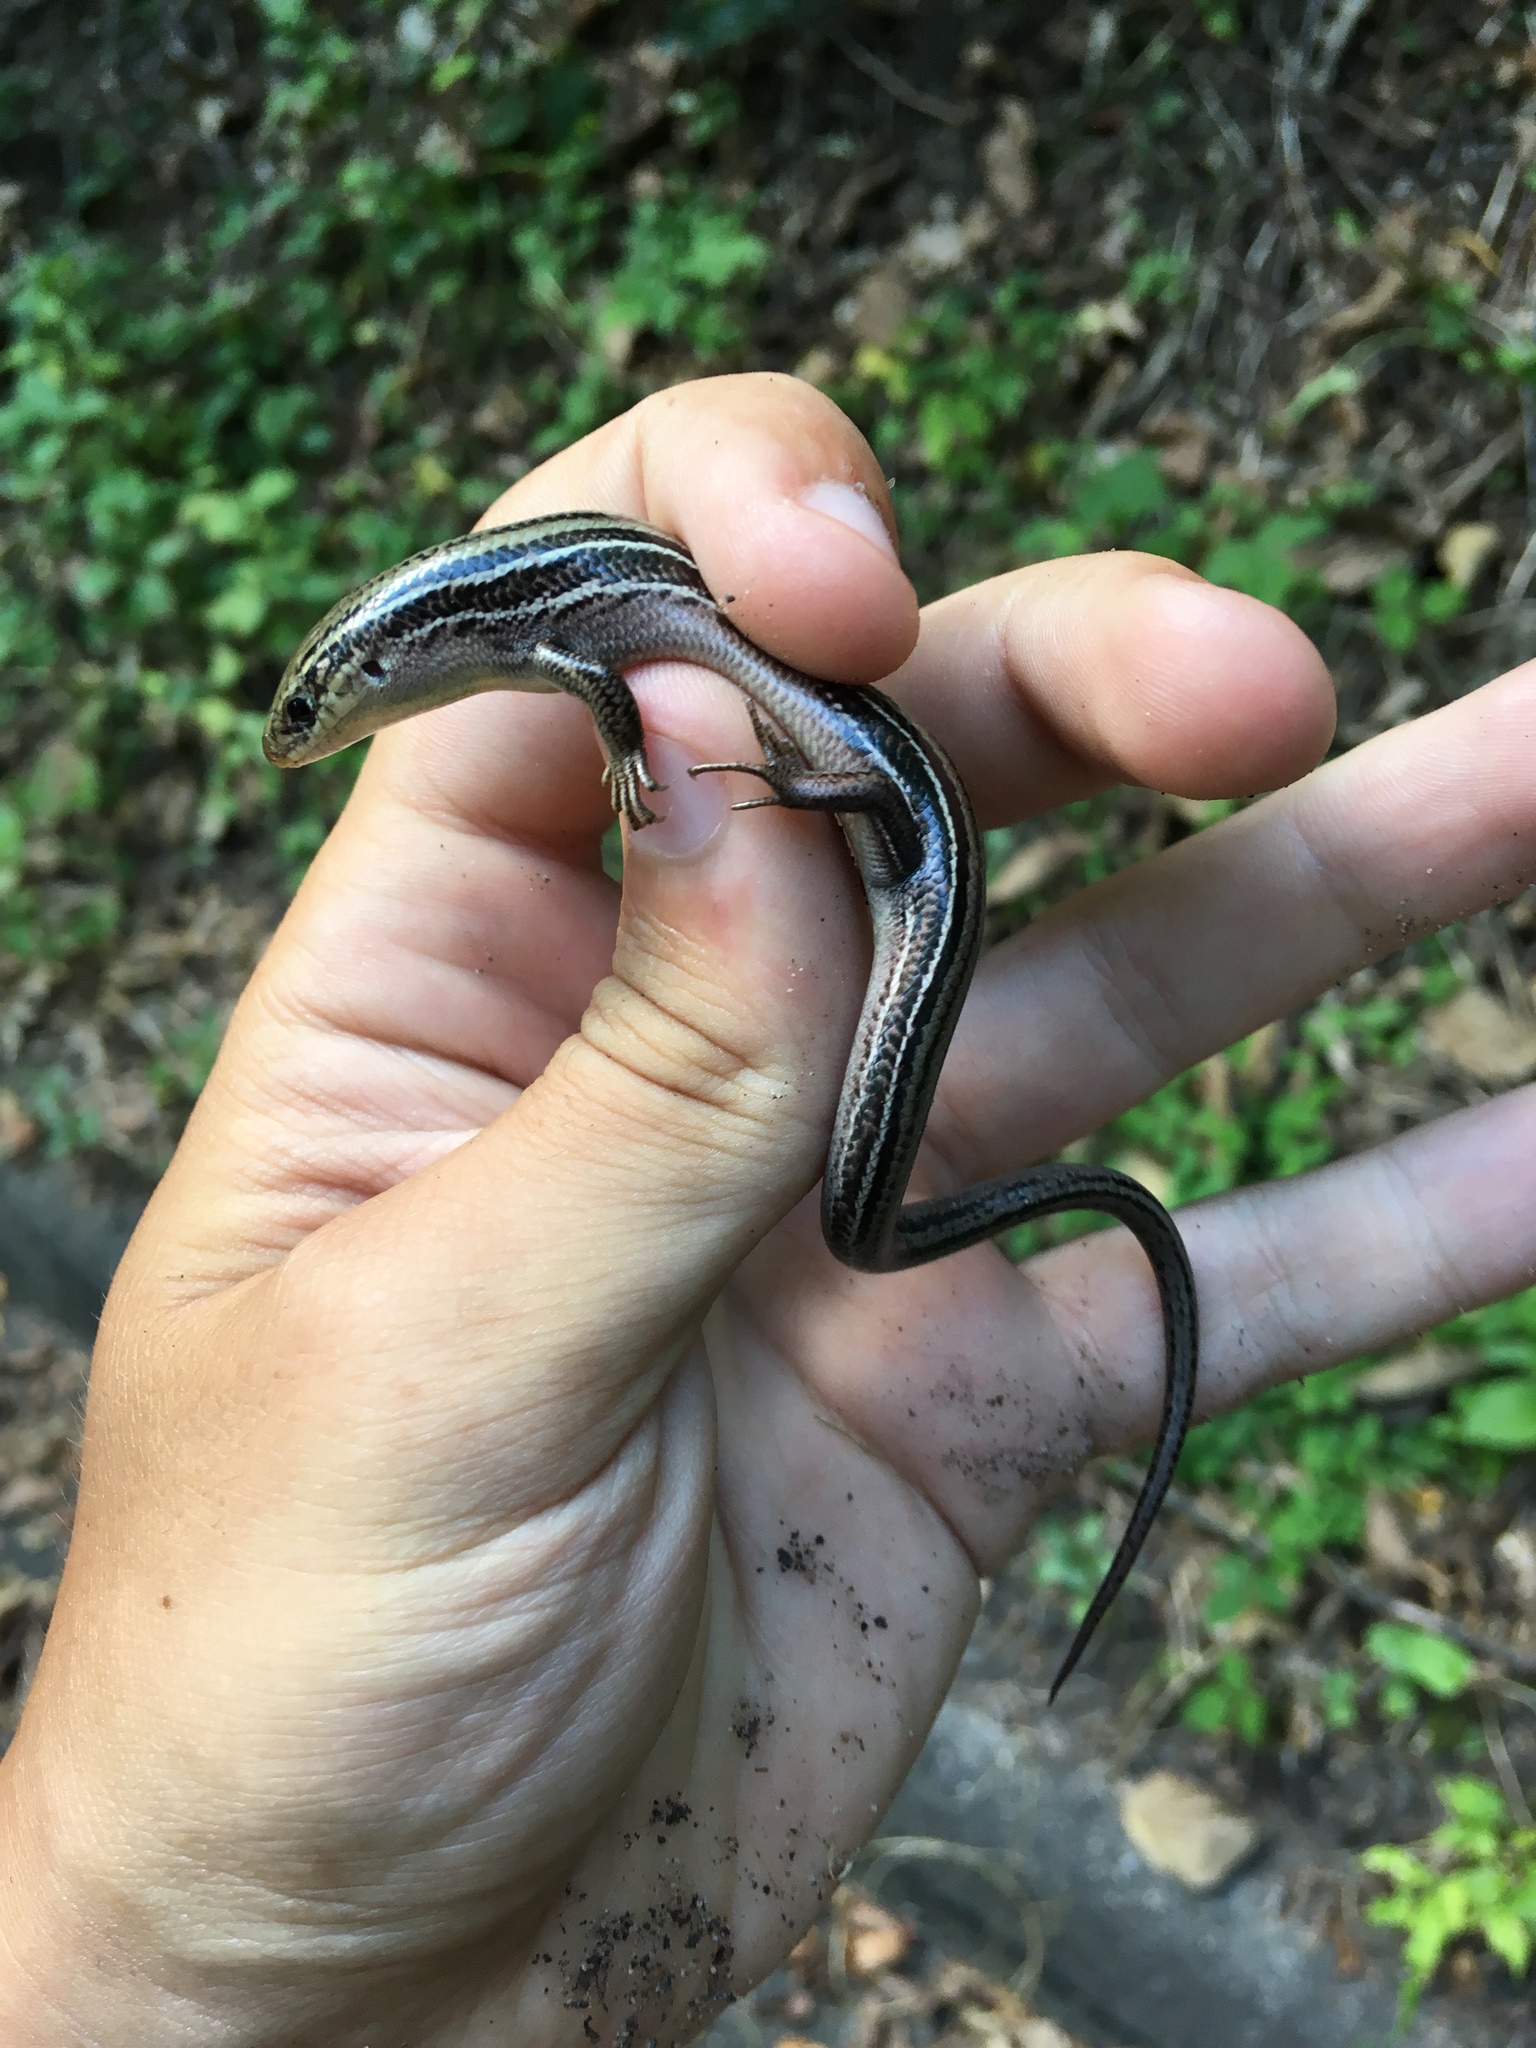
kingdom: Animalia
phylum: Chordata
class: Squamata
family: Scincidae
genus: Plestiodon
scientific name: Plestiodon septentrionalis
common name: Northern prairie skink
